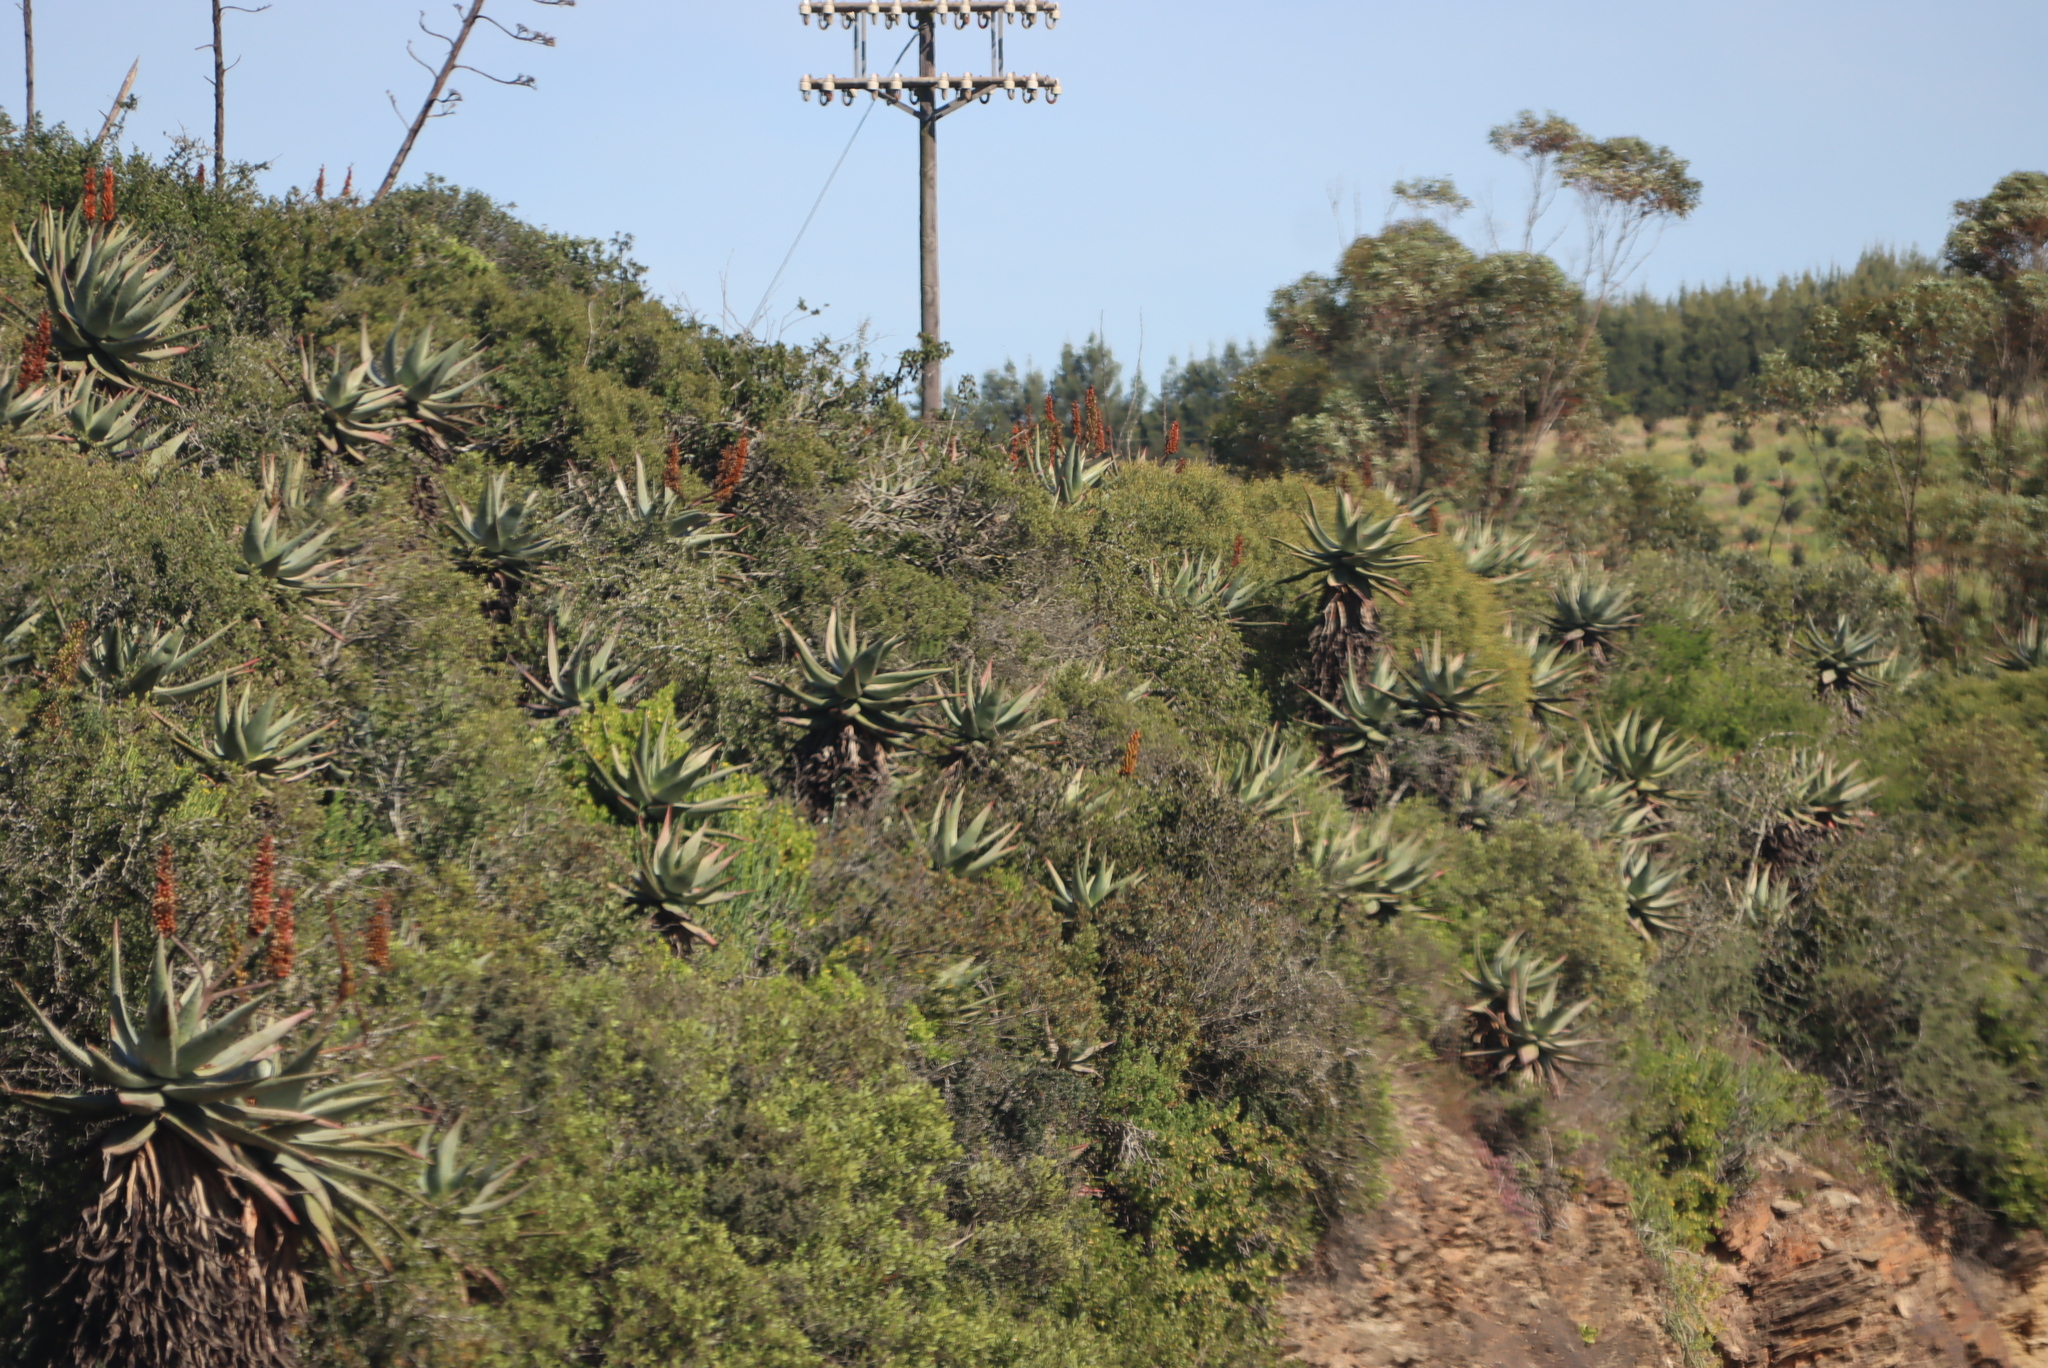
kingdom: Plantae
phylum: Tracheophyta
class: Liliopsida
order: Asparagales
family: Asphodelaceae
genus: Aloe
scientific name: Aloe ferox
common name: Bitter aloe
